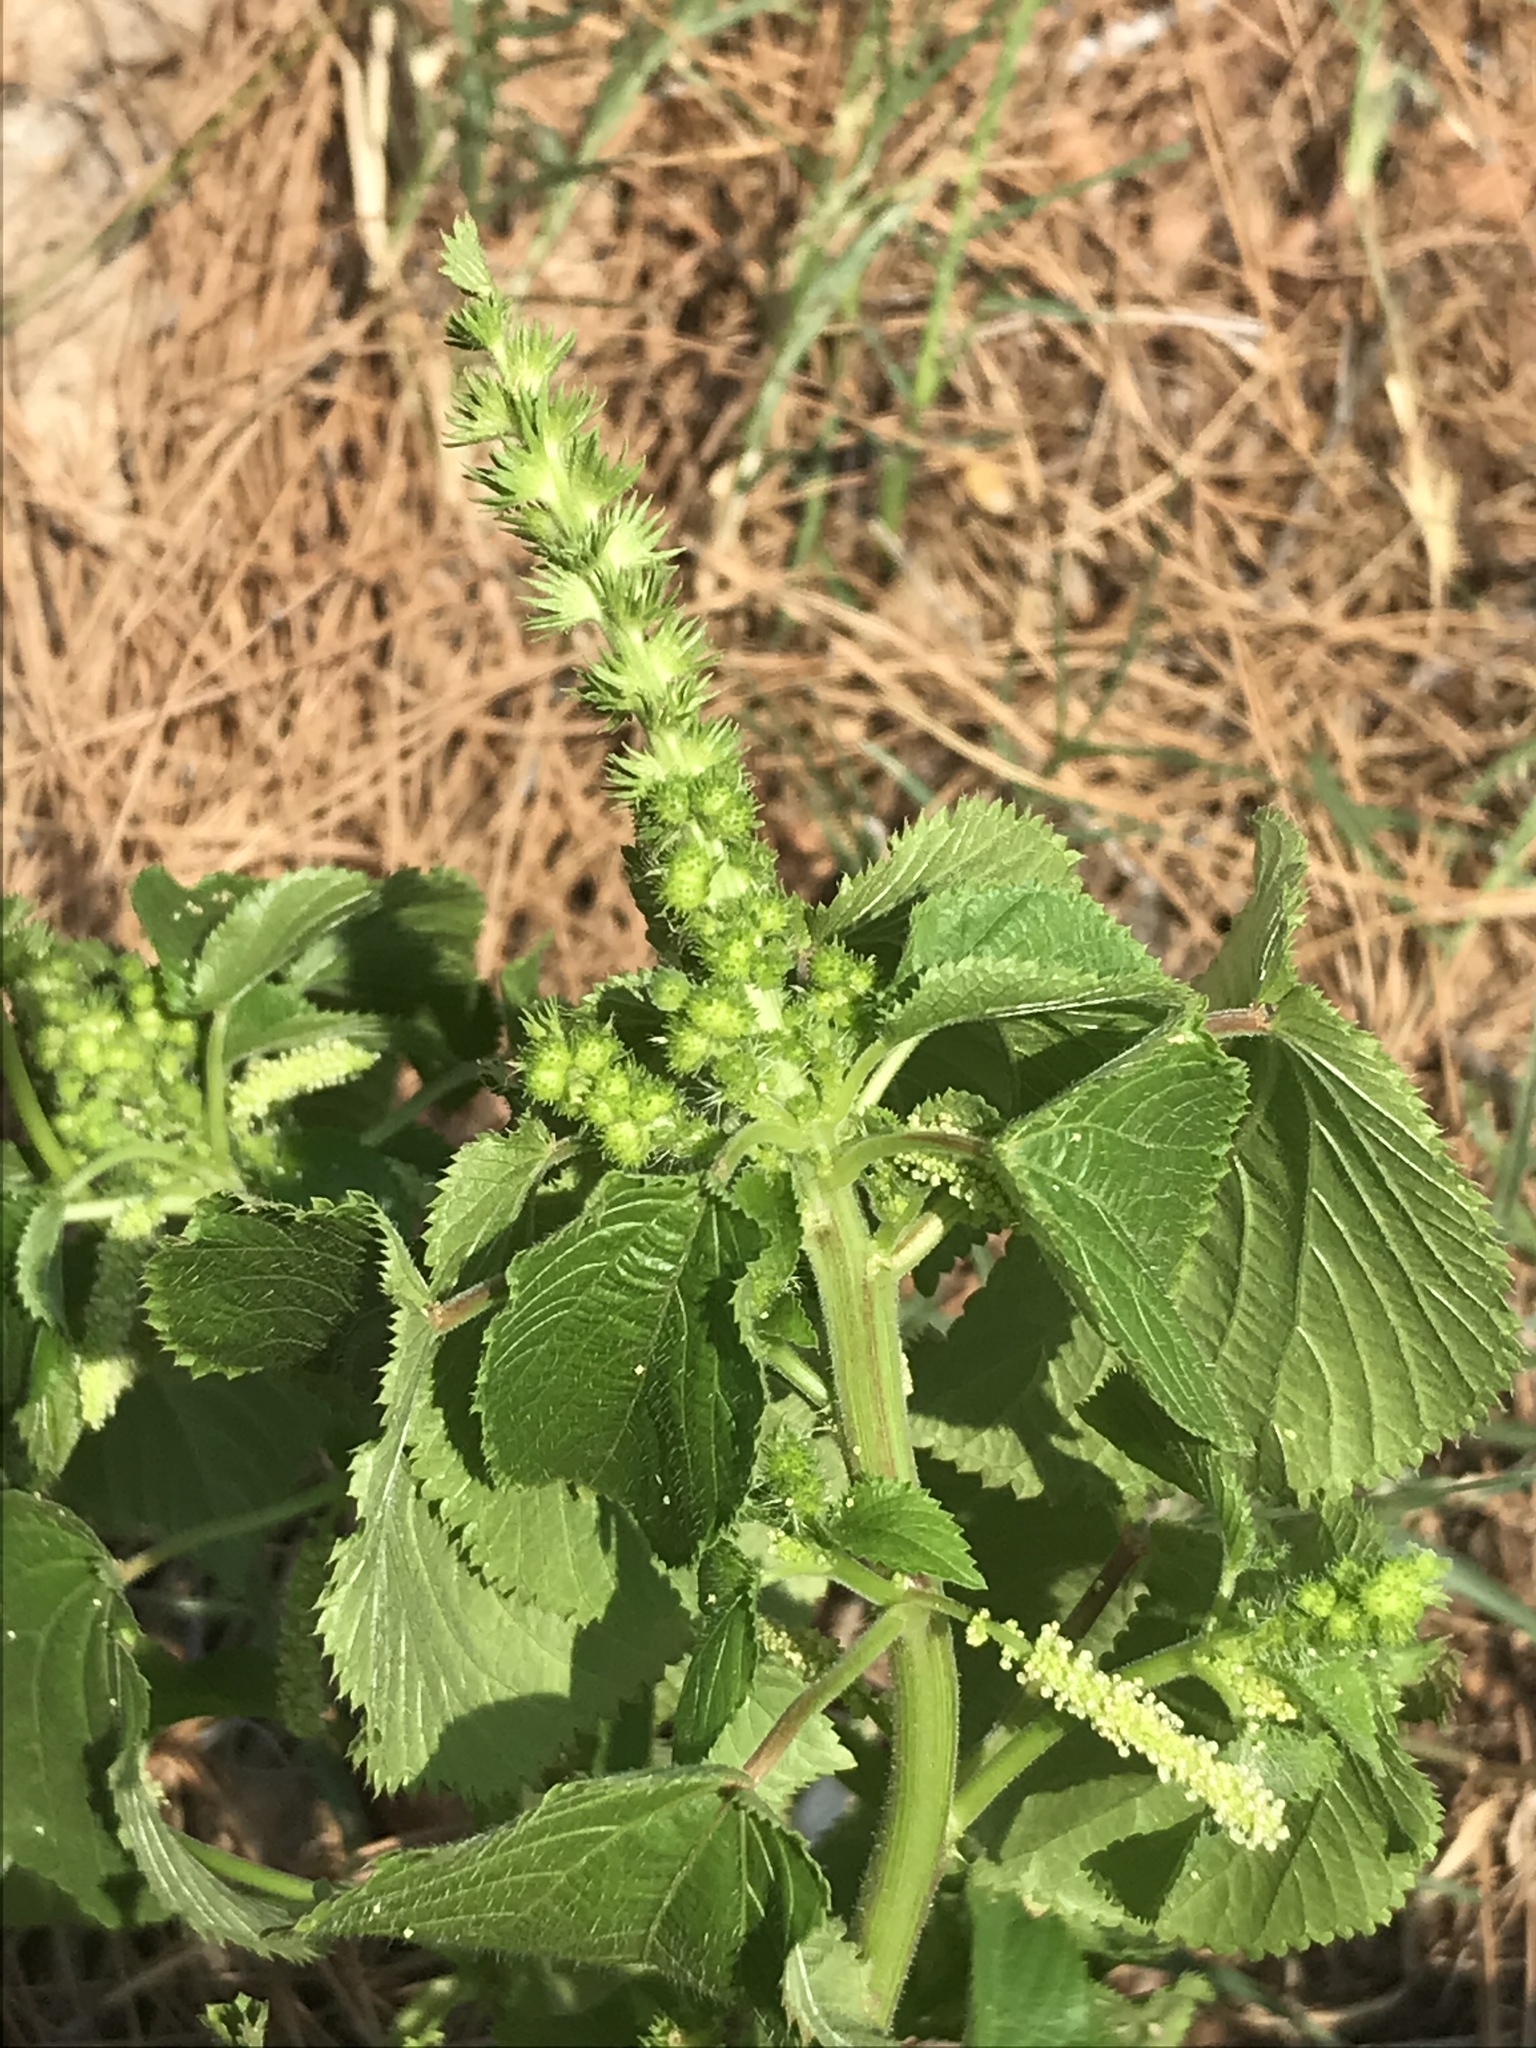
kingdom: Plantae
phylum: Tracheophyta
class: Magnoliopsida
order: Malpighiales
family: Euphorbiaceae
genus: Acalypha
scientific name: Acalypha ostryifolia
